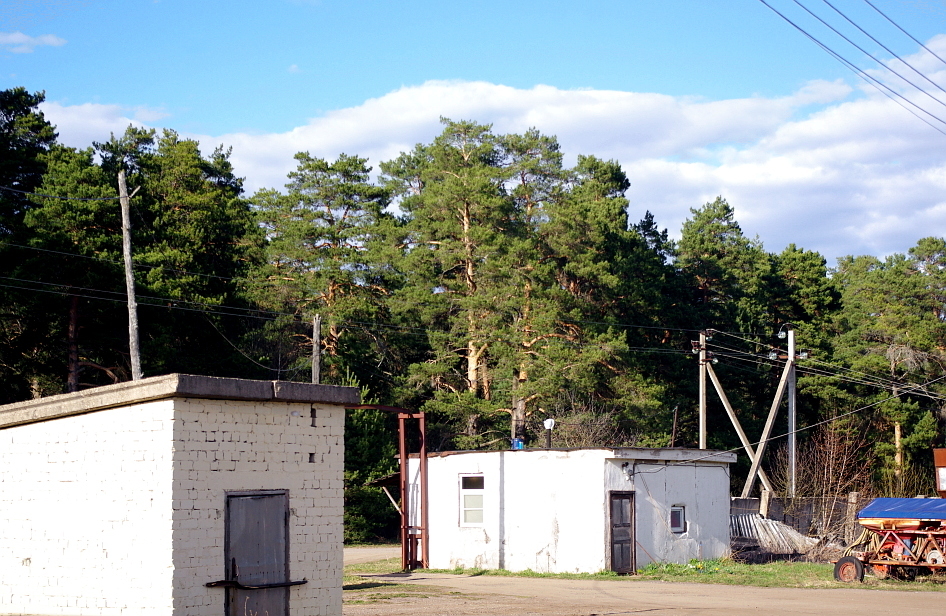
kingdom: Plantae
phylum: Tracheophyta
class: Pinopsida
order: Pinales
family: Pinaceae
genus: Pinus
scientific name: Pinus sylvestris
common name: Scots pine
